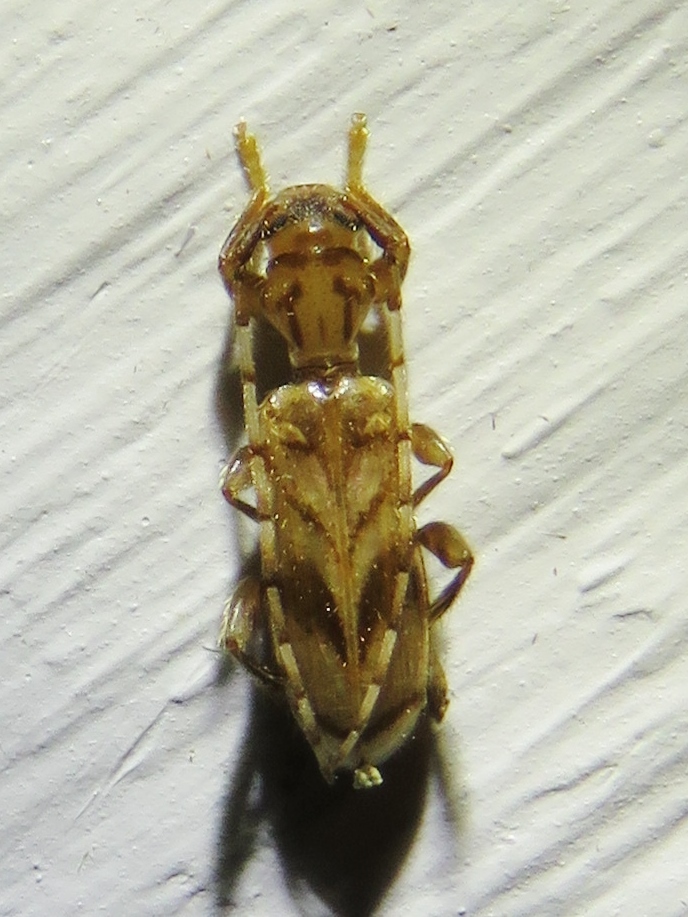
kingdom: Animalia
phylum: Arthropoda
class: Insecta
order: Coleoptera
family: Cerambycidae
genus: Obrium
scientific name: Obrium maculatum
